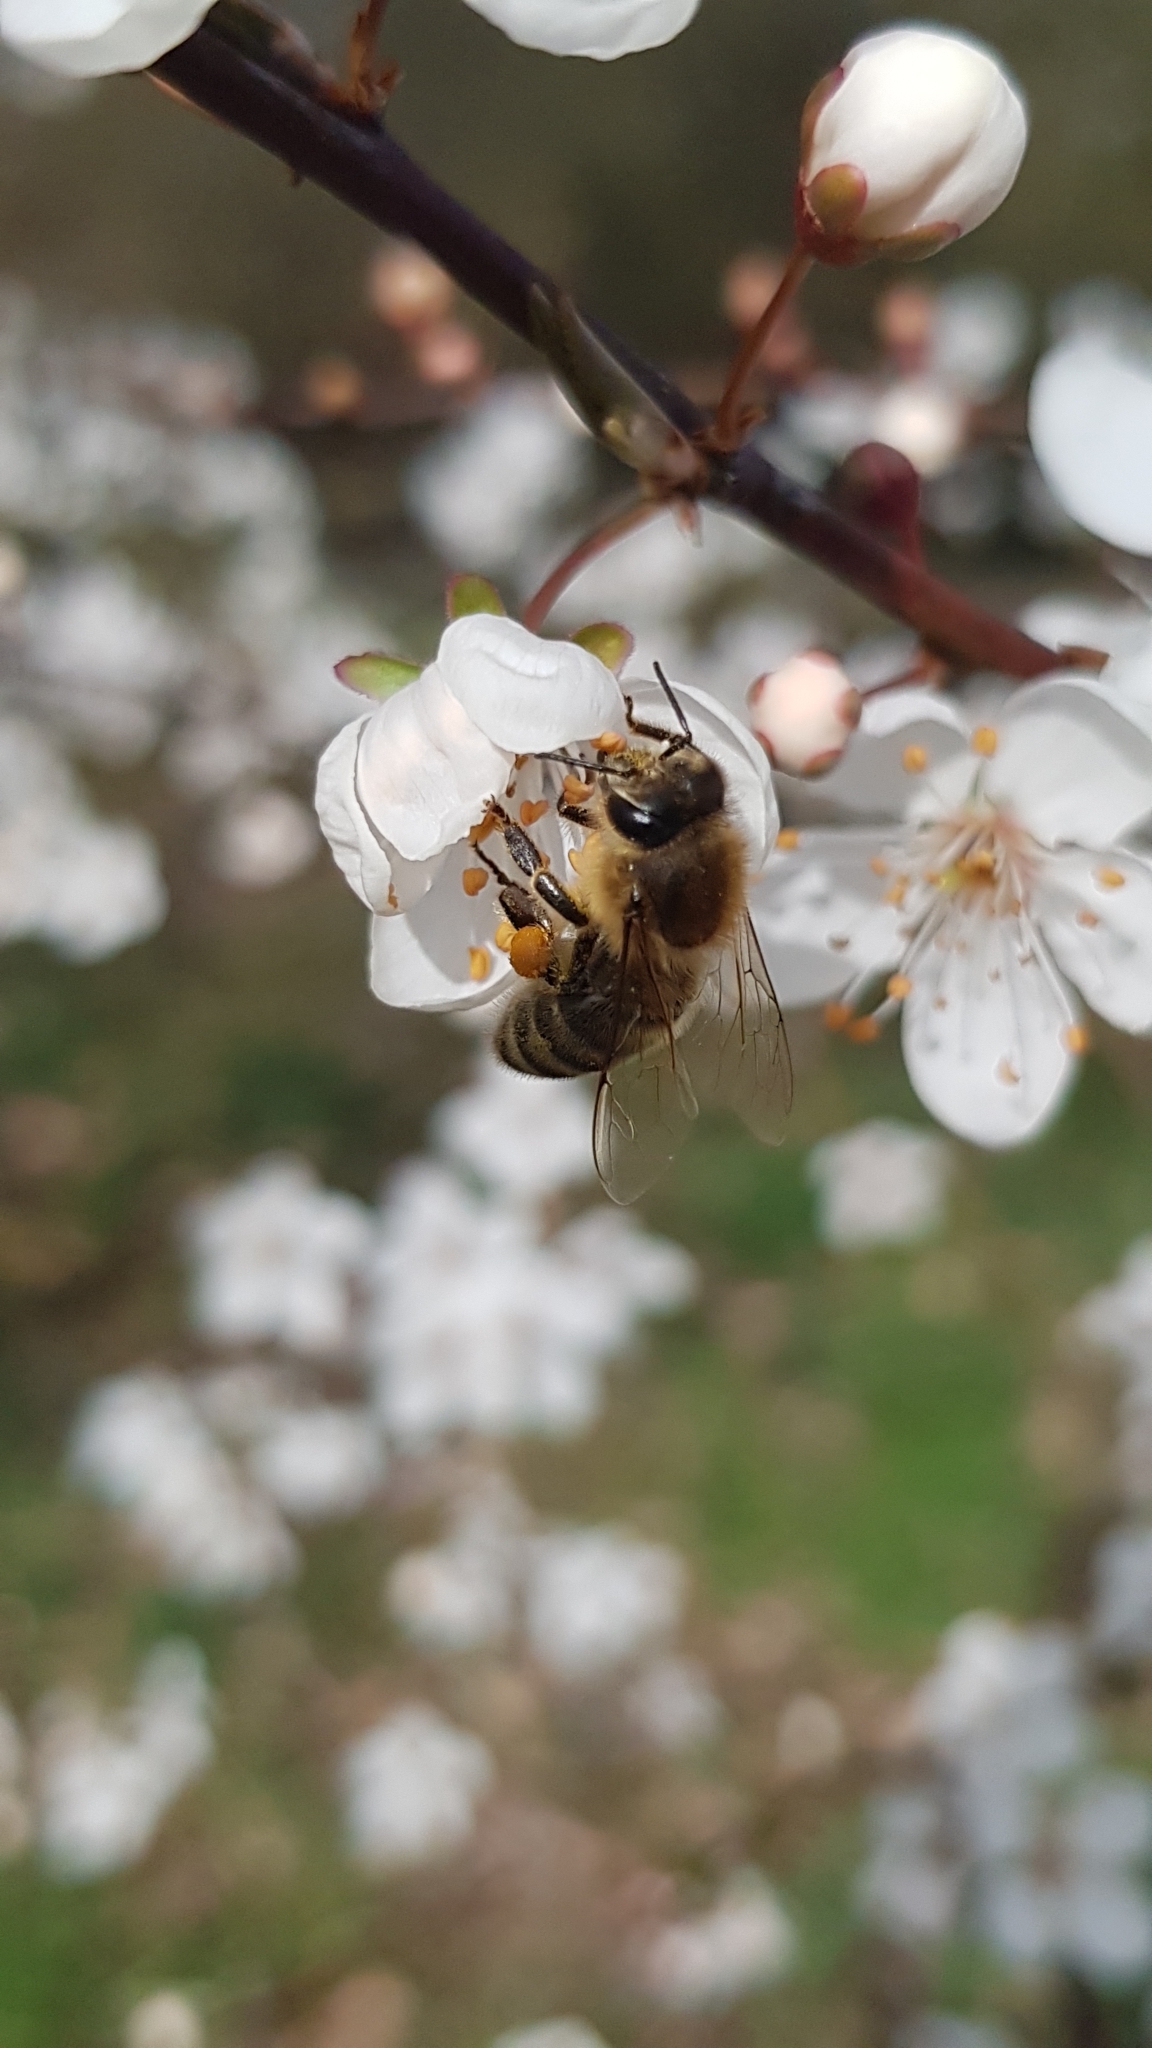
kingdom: Animalia
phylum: Arthropoda
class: Insecta
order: Hymenoptera
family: Apidae
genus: Apis
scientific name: Apis mellifera
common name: Honey bee
